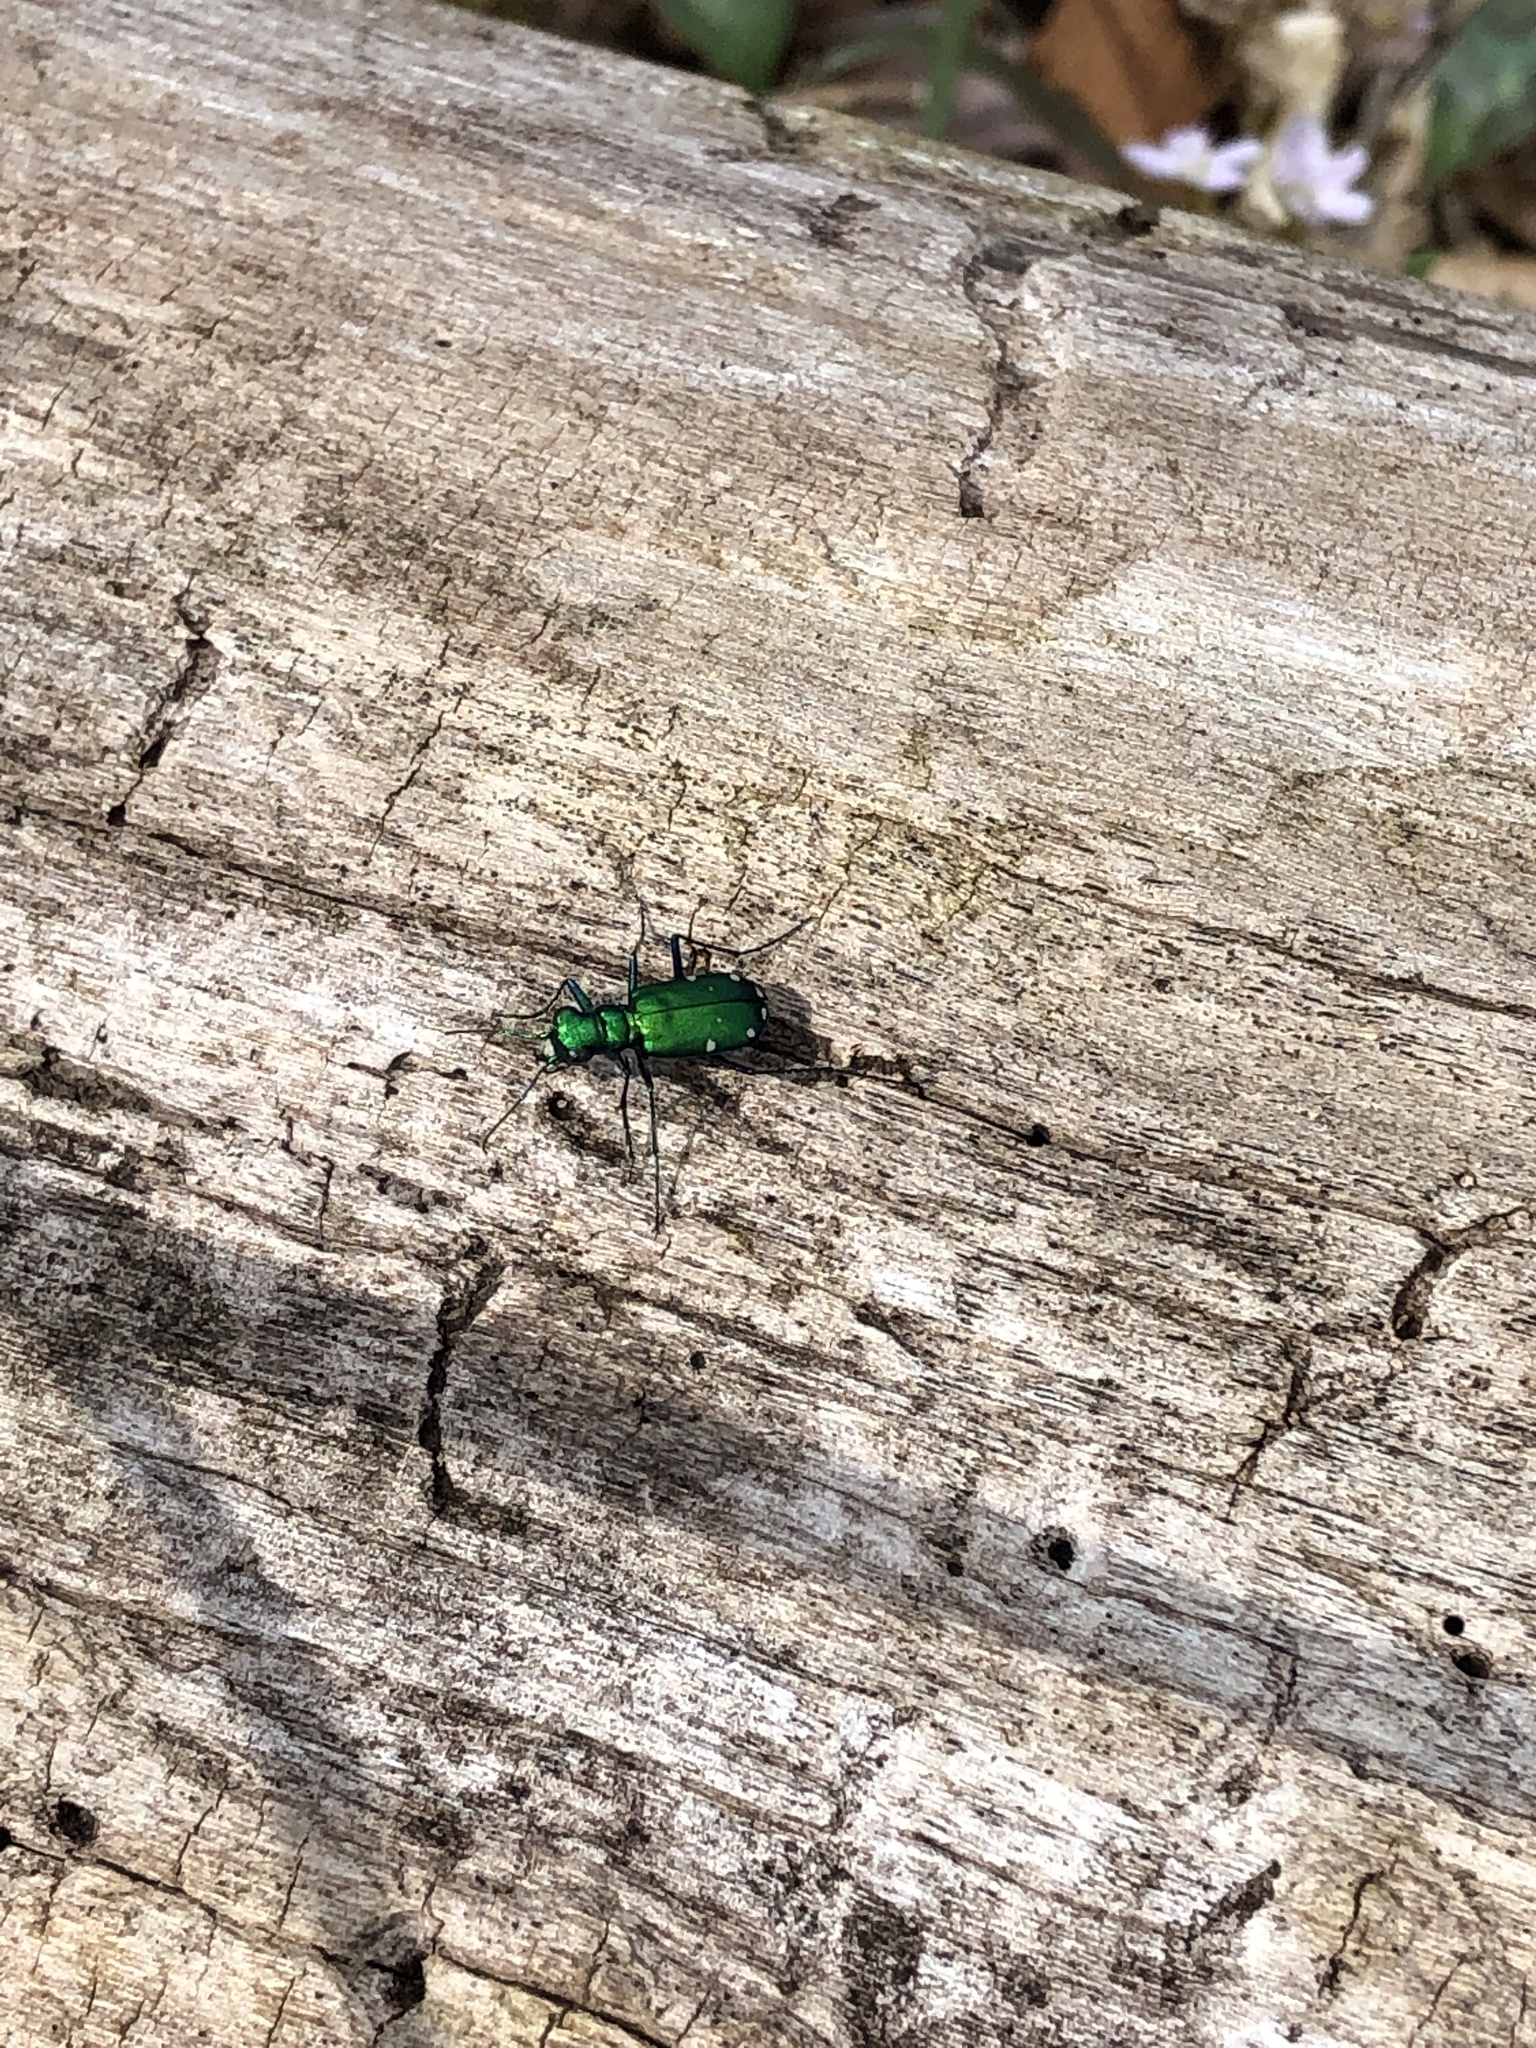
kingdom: Animalia
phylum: Arthropoda
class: Insecta
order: Coleoptera
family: Carabidae
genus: Cicindela
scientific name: Cicindela sexguttata
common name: Six-spotted tiger beetle
